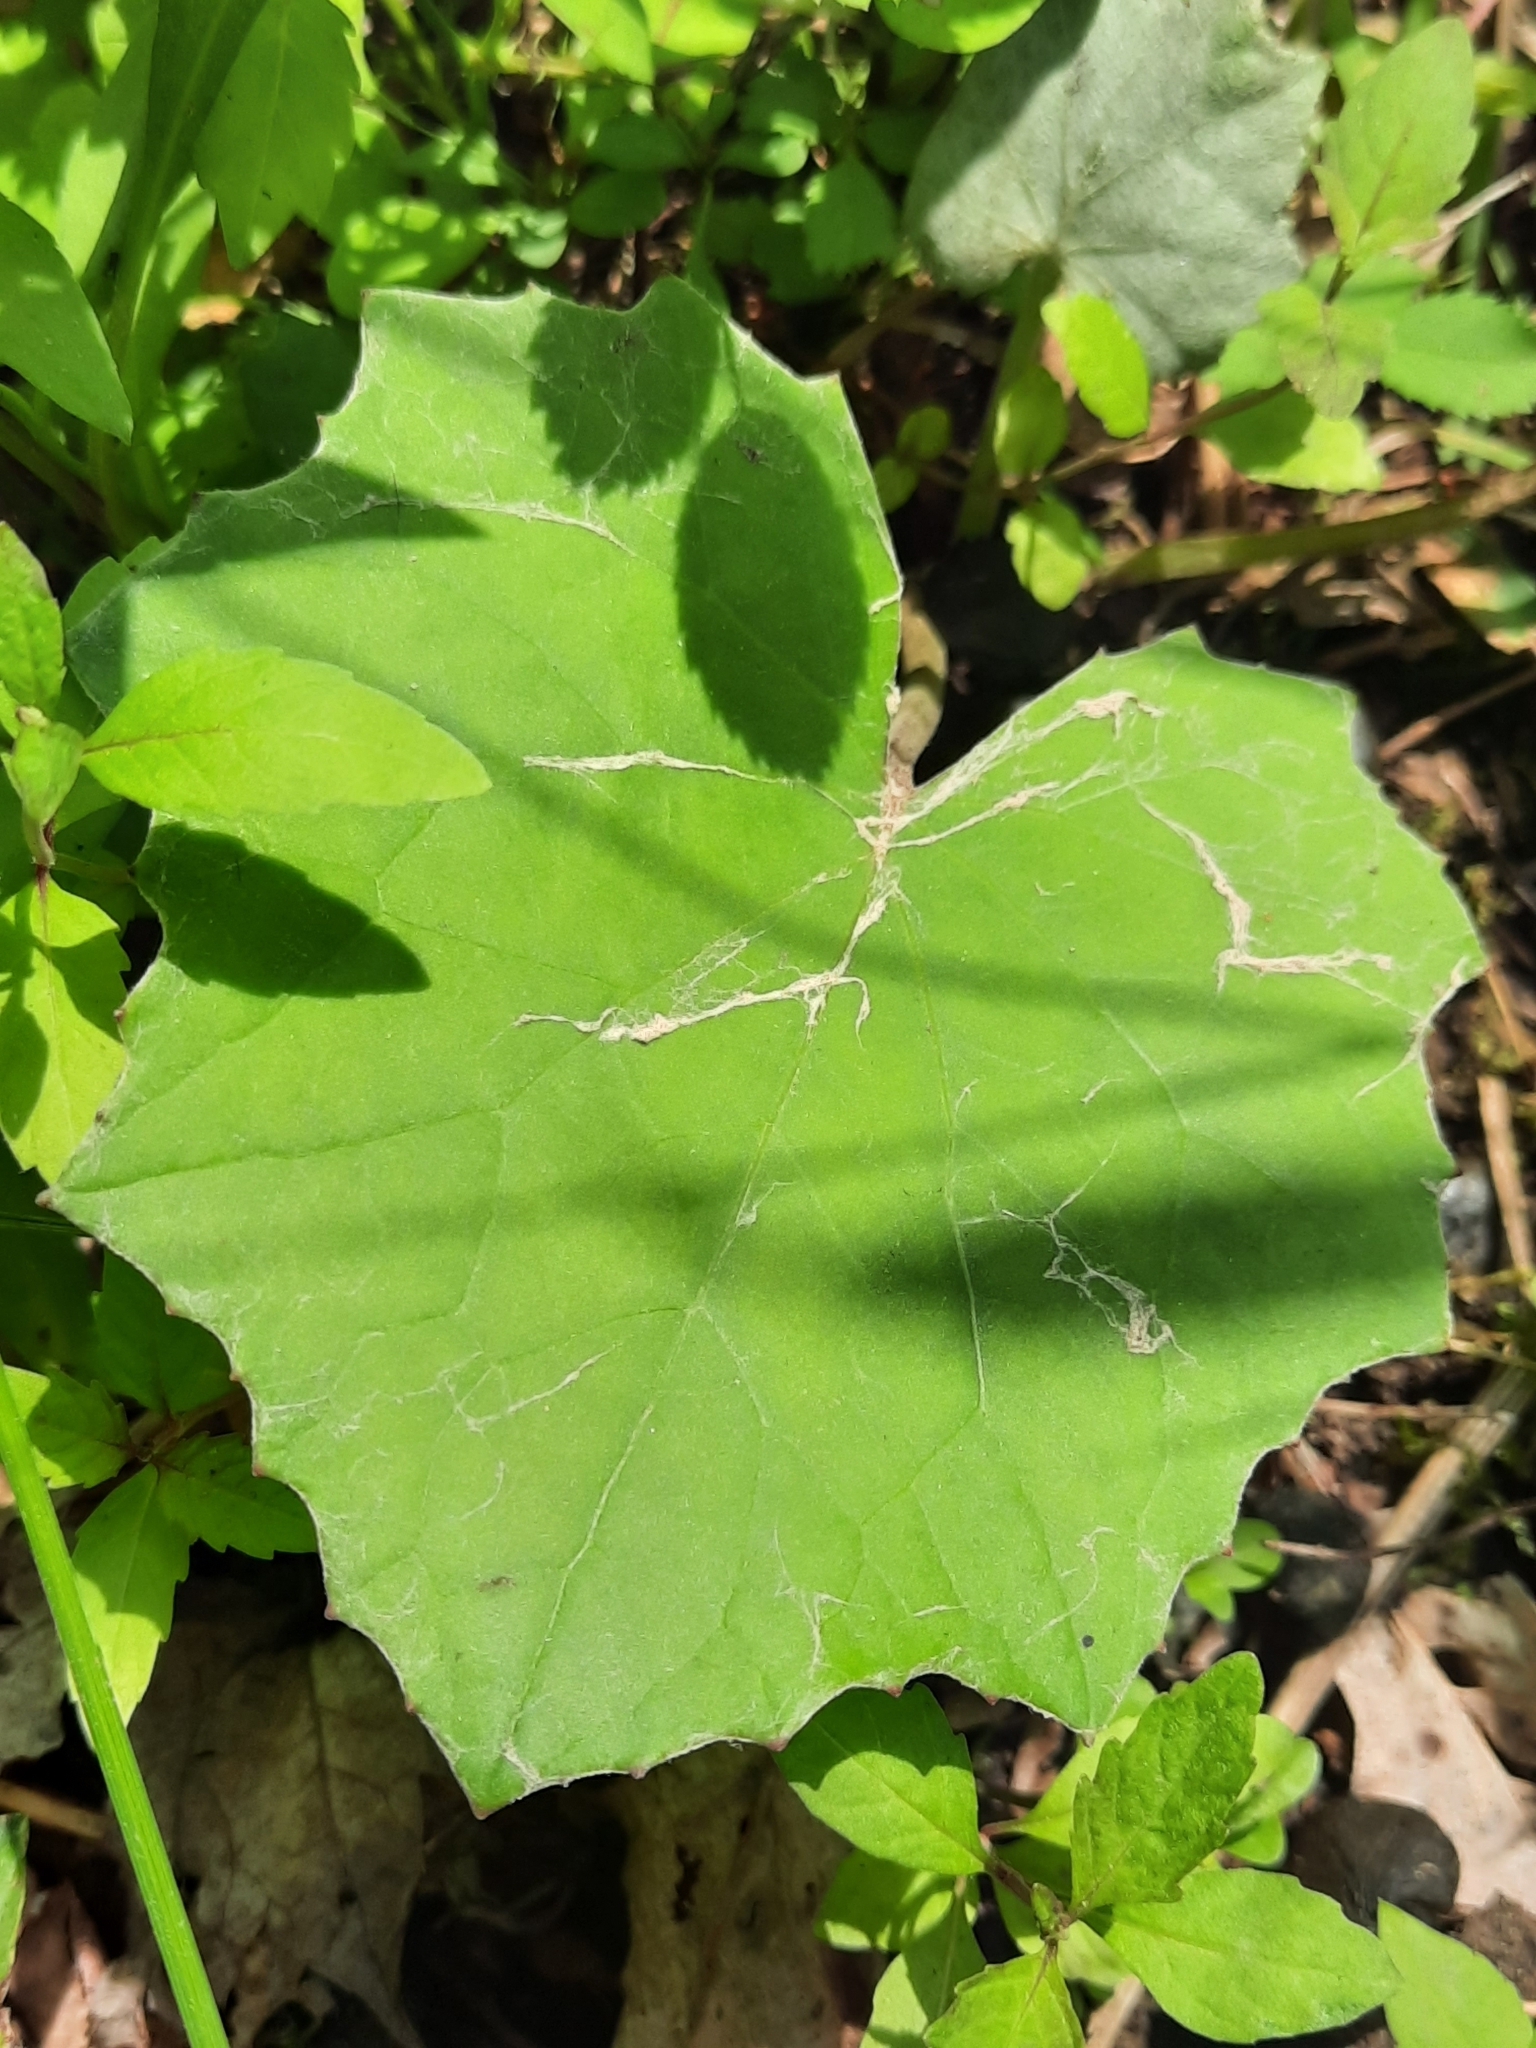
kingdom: Plantae
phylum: Tracheophyta
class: Magnoliopsida
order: Asterales
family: Asteraceae
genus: Tussilago
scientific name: Tussilago farfara
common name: Coltsfoot
